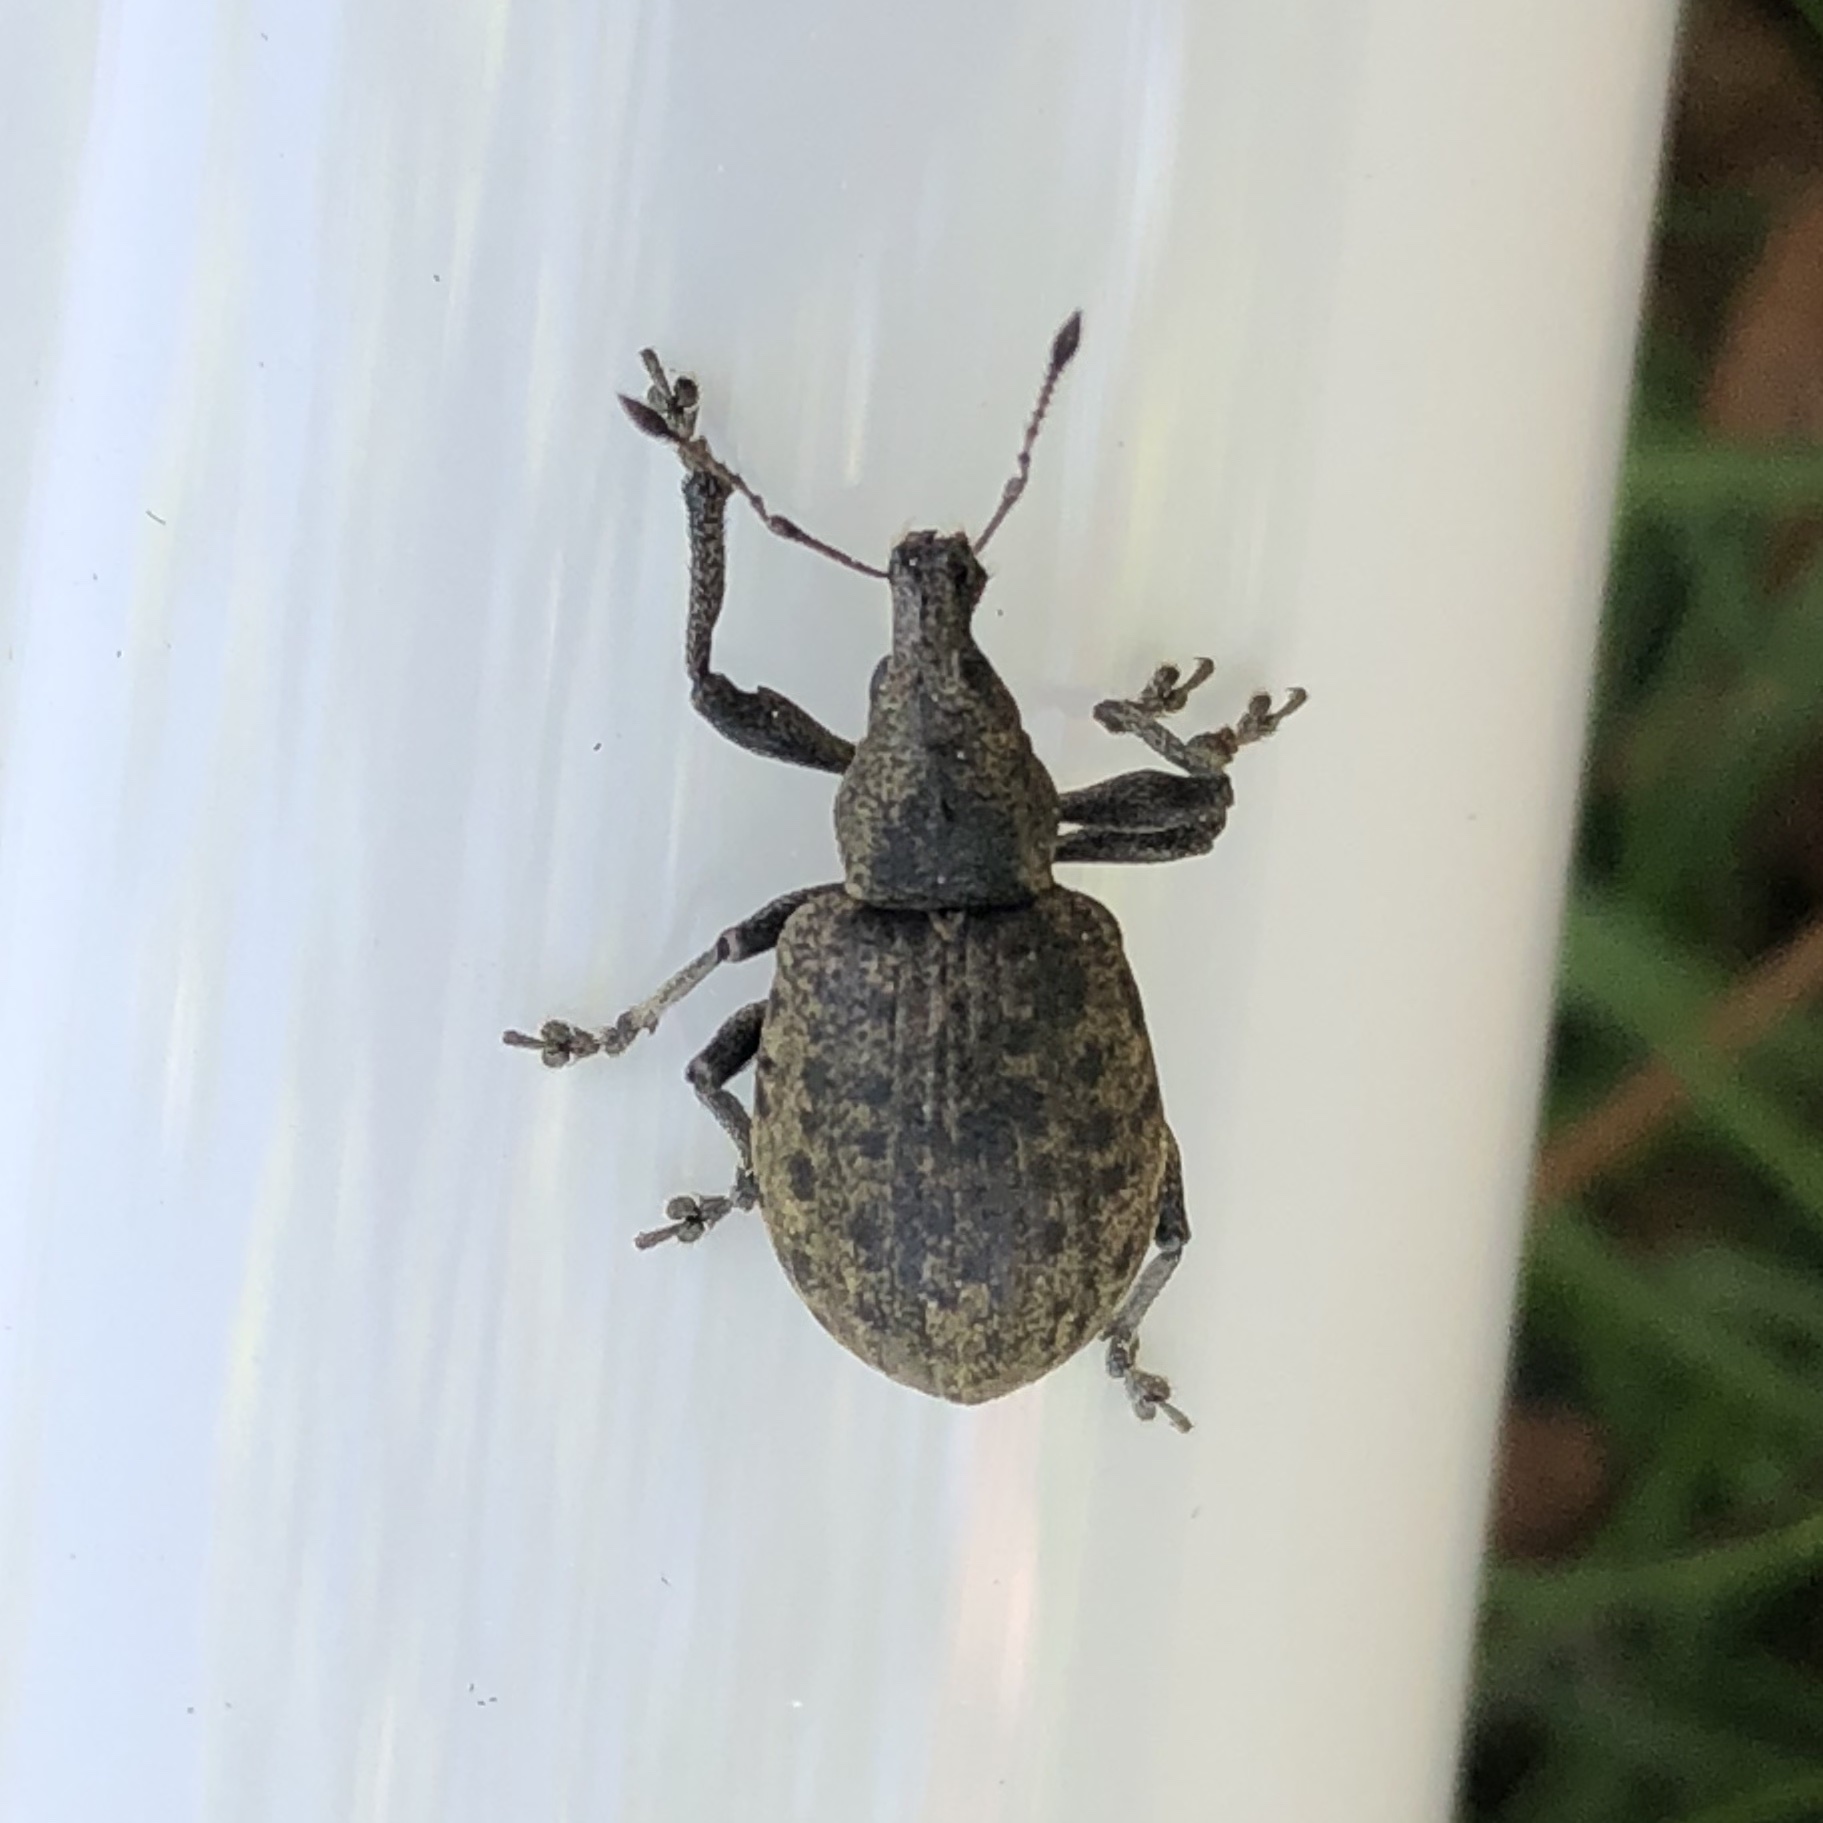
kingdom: Animalia
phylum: Arthropoda
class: Insecta
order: Coleoptera
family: Curculionidae
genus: Liophloeus
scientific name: Liophloeus tessulatus
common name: Weevil
